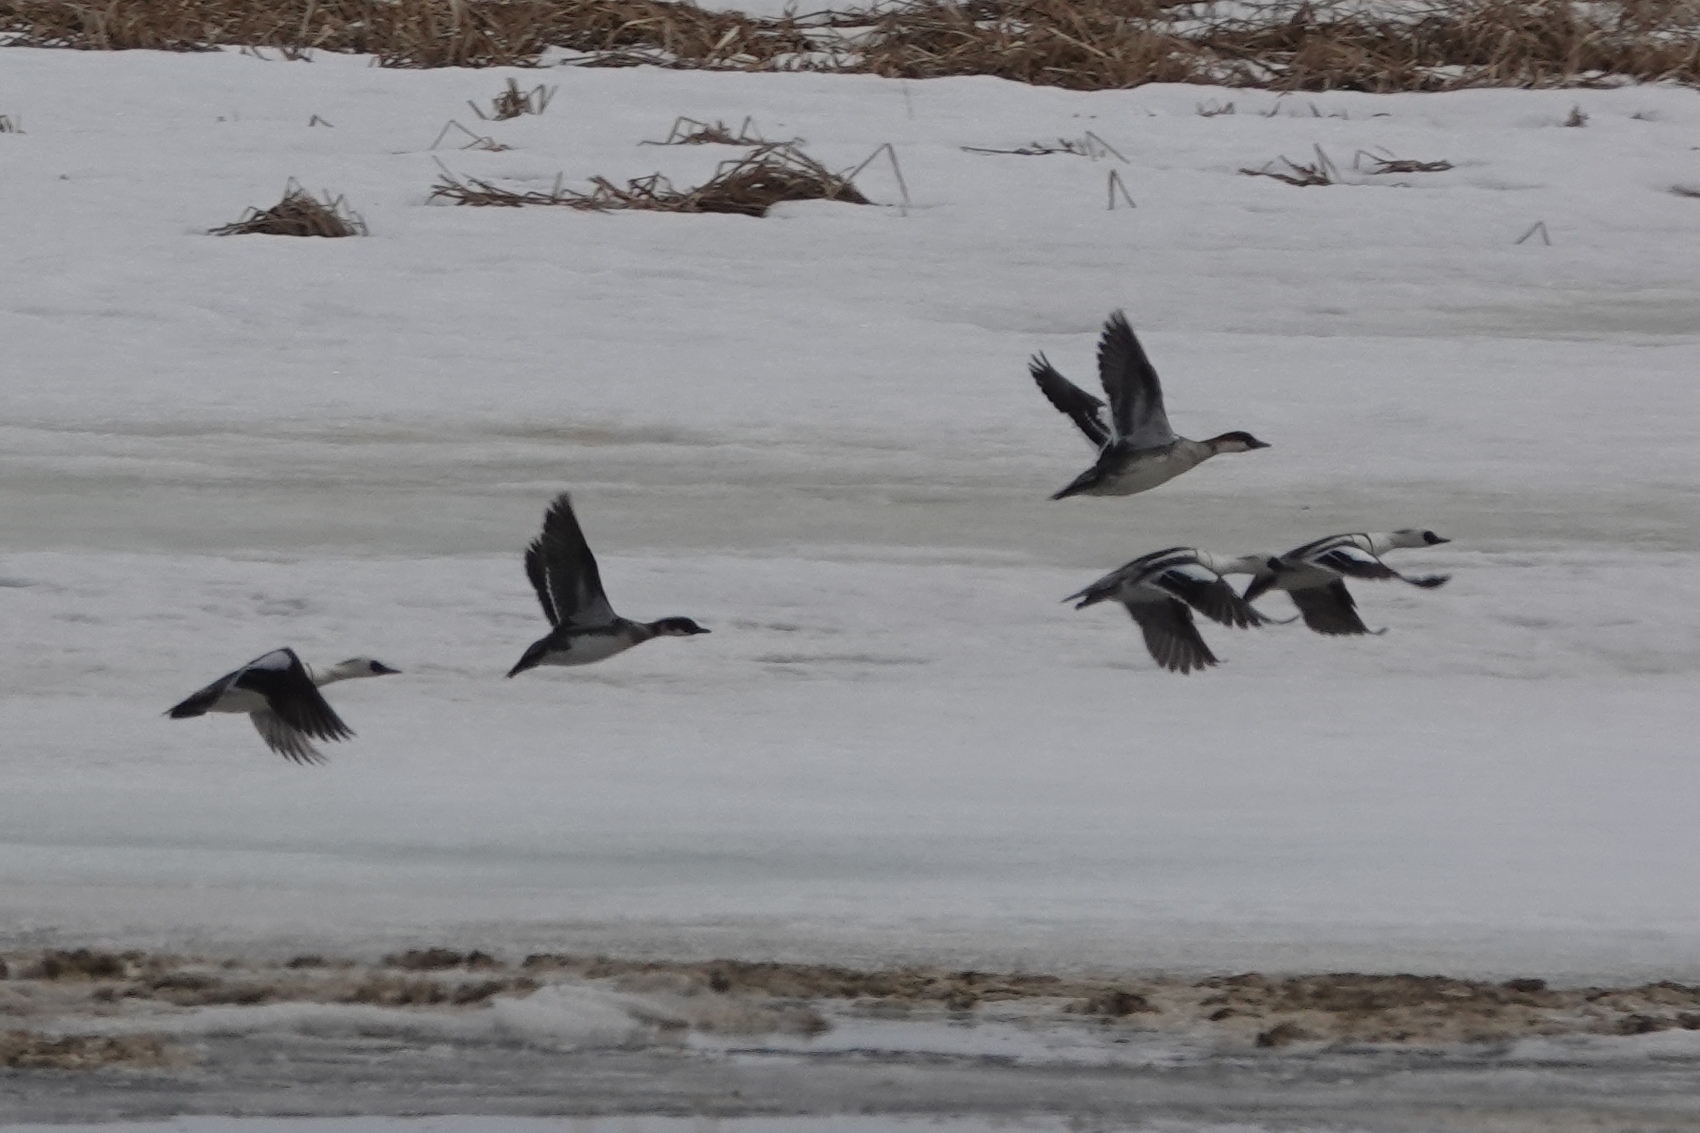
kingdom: Animalia
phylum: Chordata
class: Aves
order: Anseriformes
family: Anatidae
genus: Mergellus
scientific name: Mergellus albellus
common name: Smew
